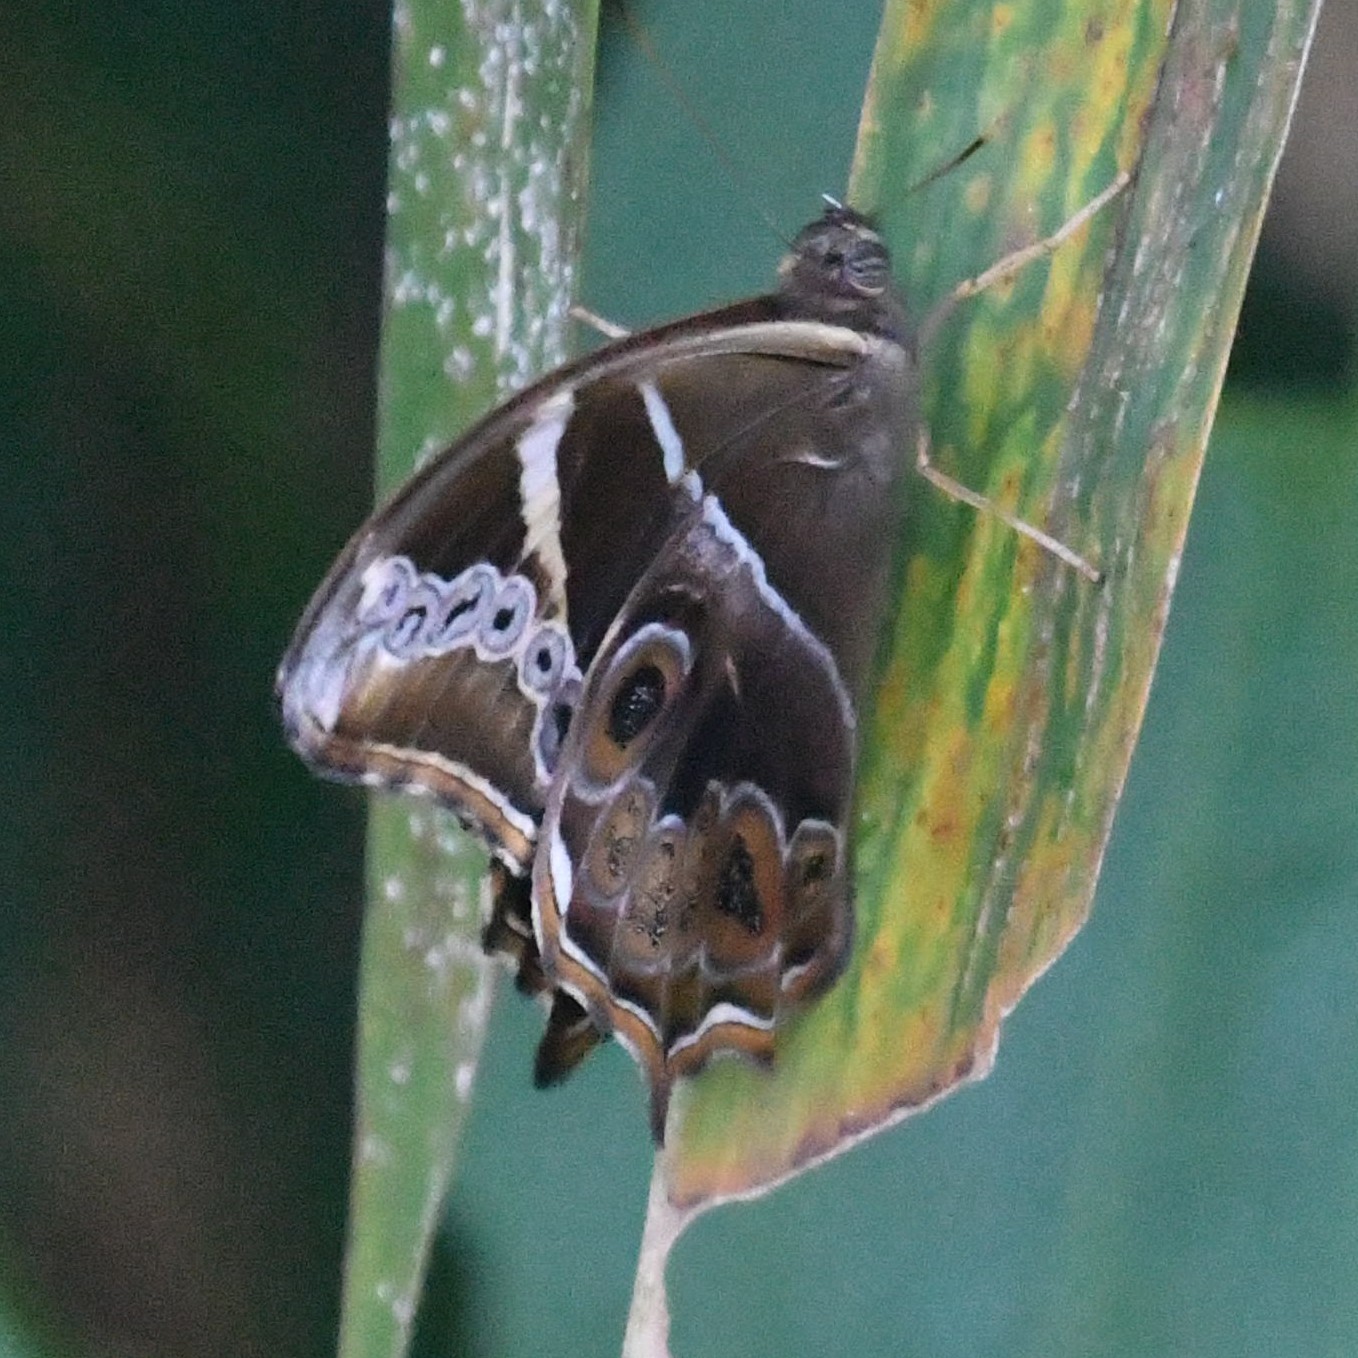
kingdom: Animalia
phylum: Arthropoda
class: Insecta
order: Lepidoptera
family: Nymphalidae
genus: Lethe
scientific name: Lethe europa
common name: Bamboo treebrown
